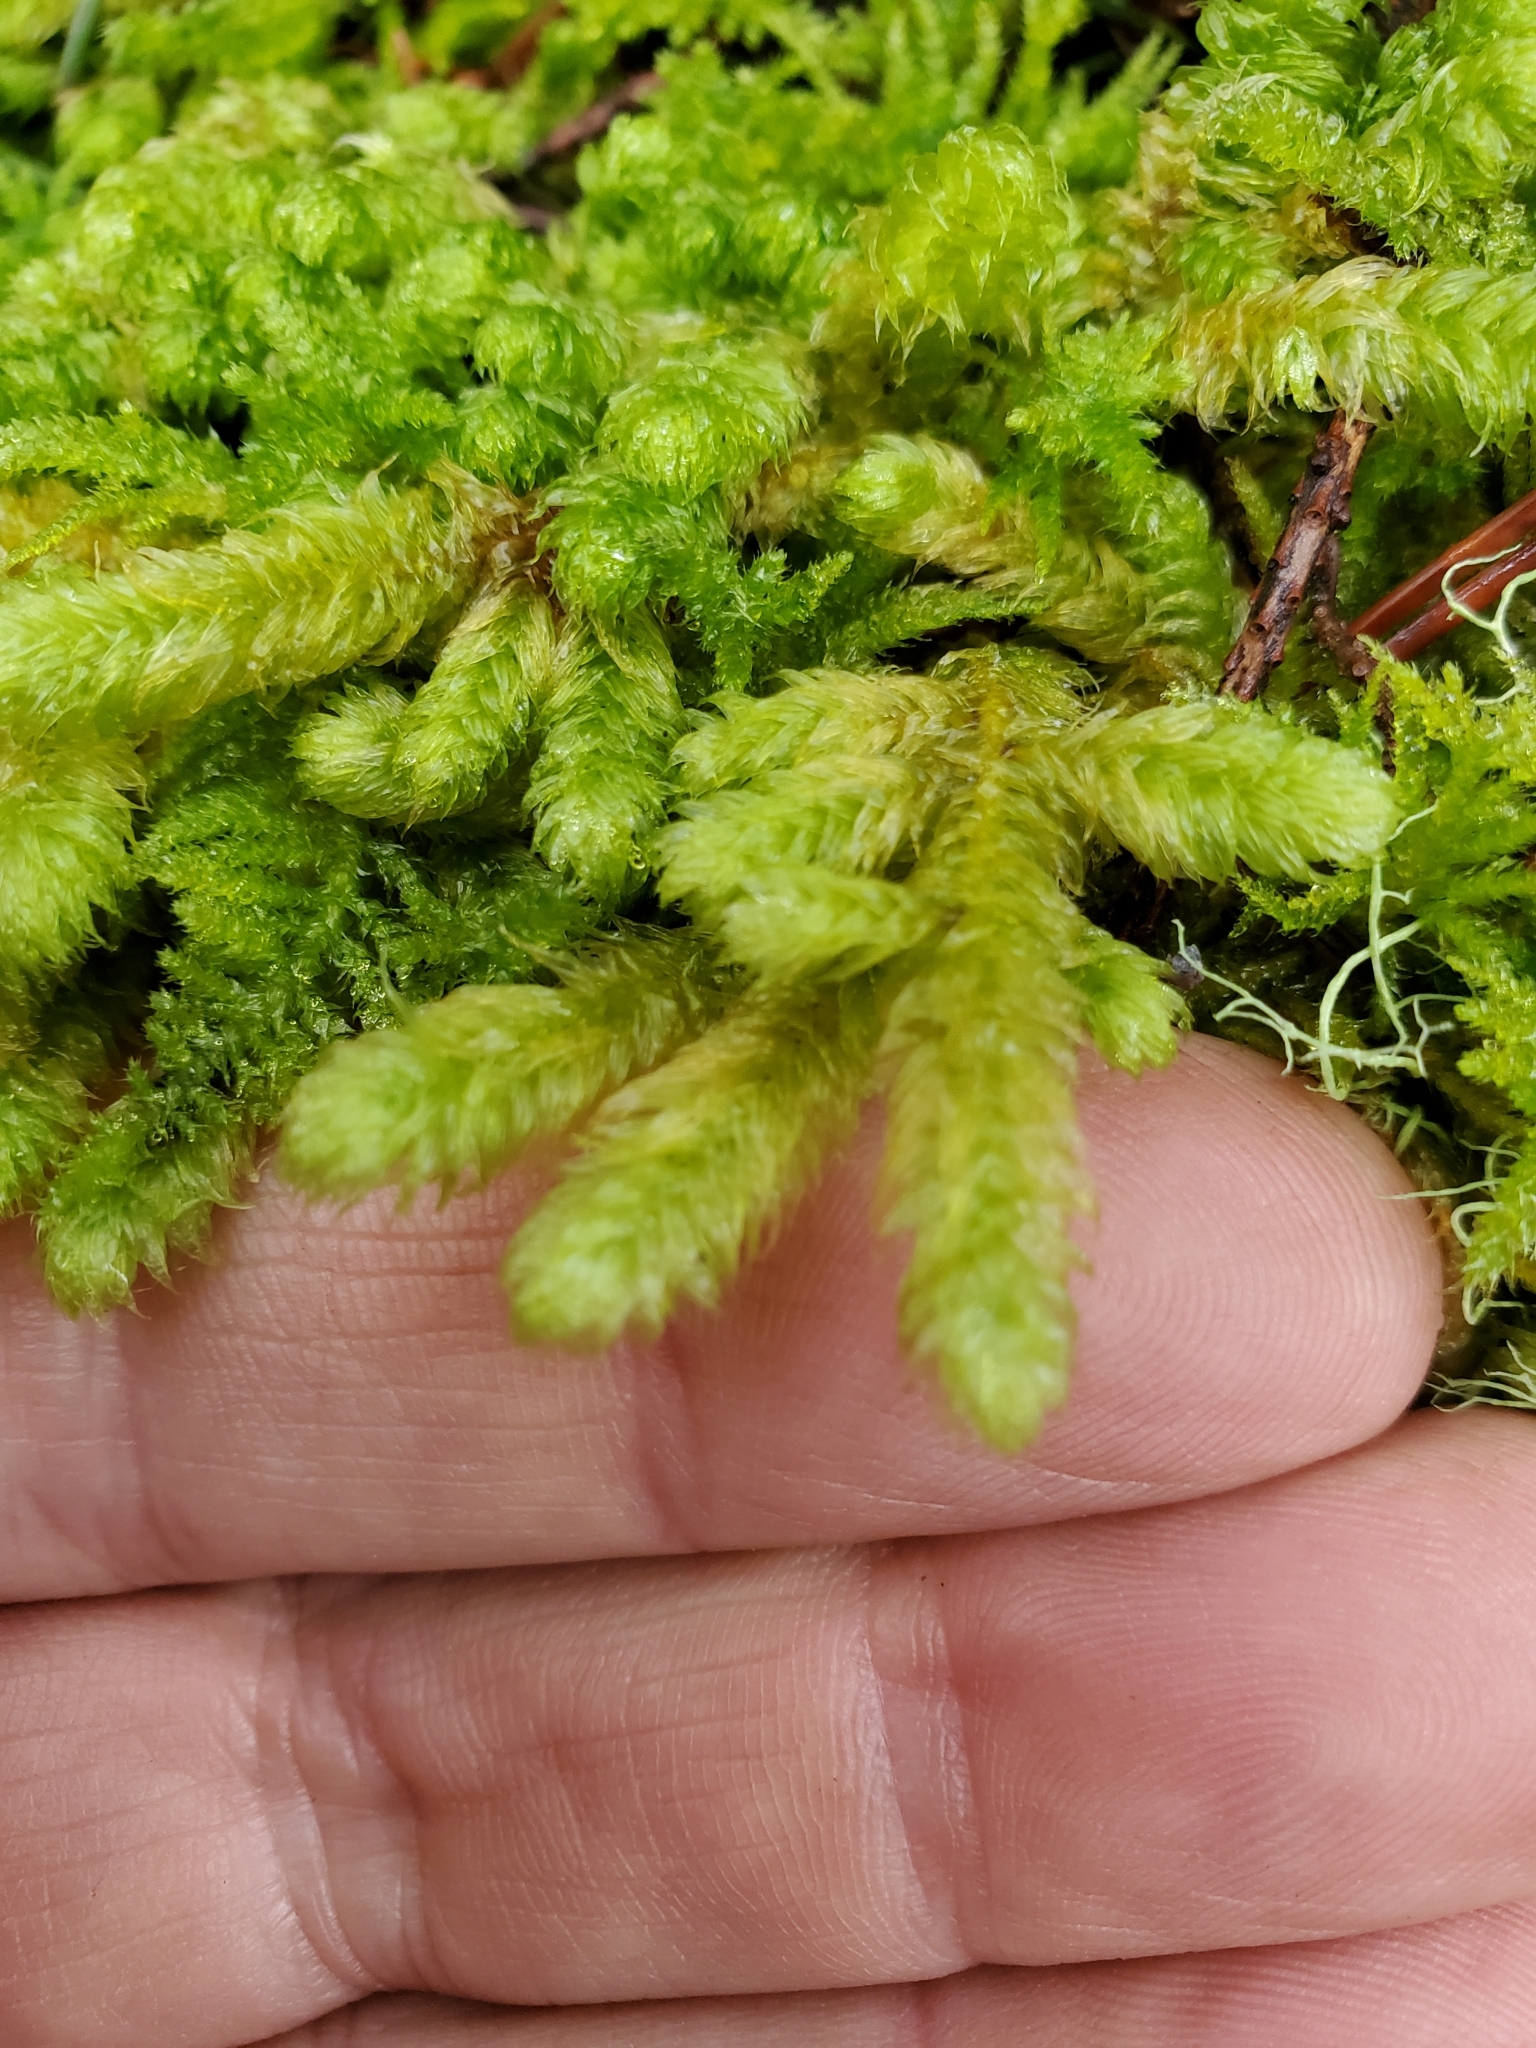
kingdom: Plantae
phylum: Bryophyta
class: Bryopsida
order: Hypnales
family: Hylocomiaceae
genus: Rhytidiopsis
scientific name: Rhytidiopsis robusta
